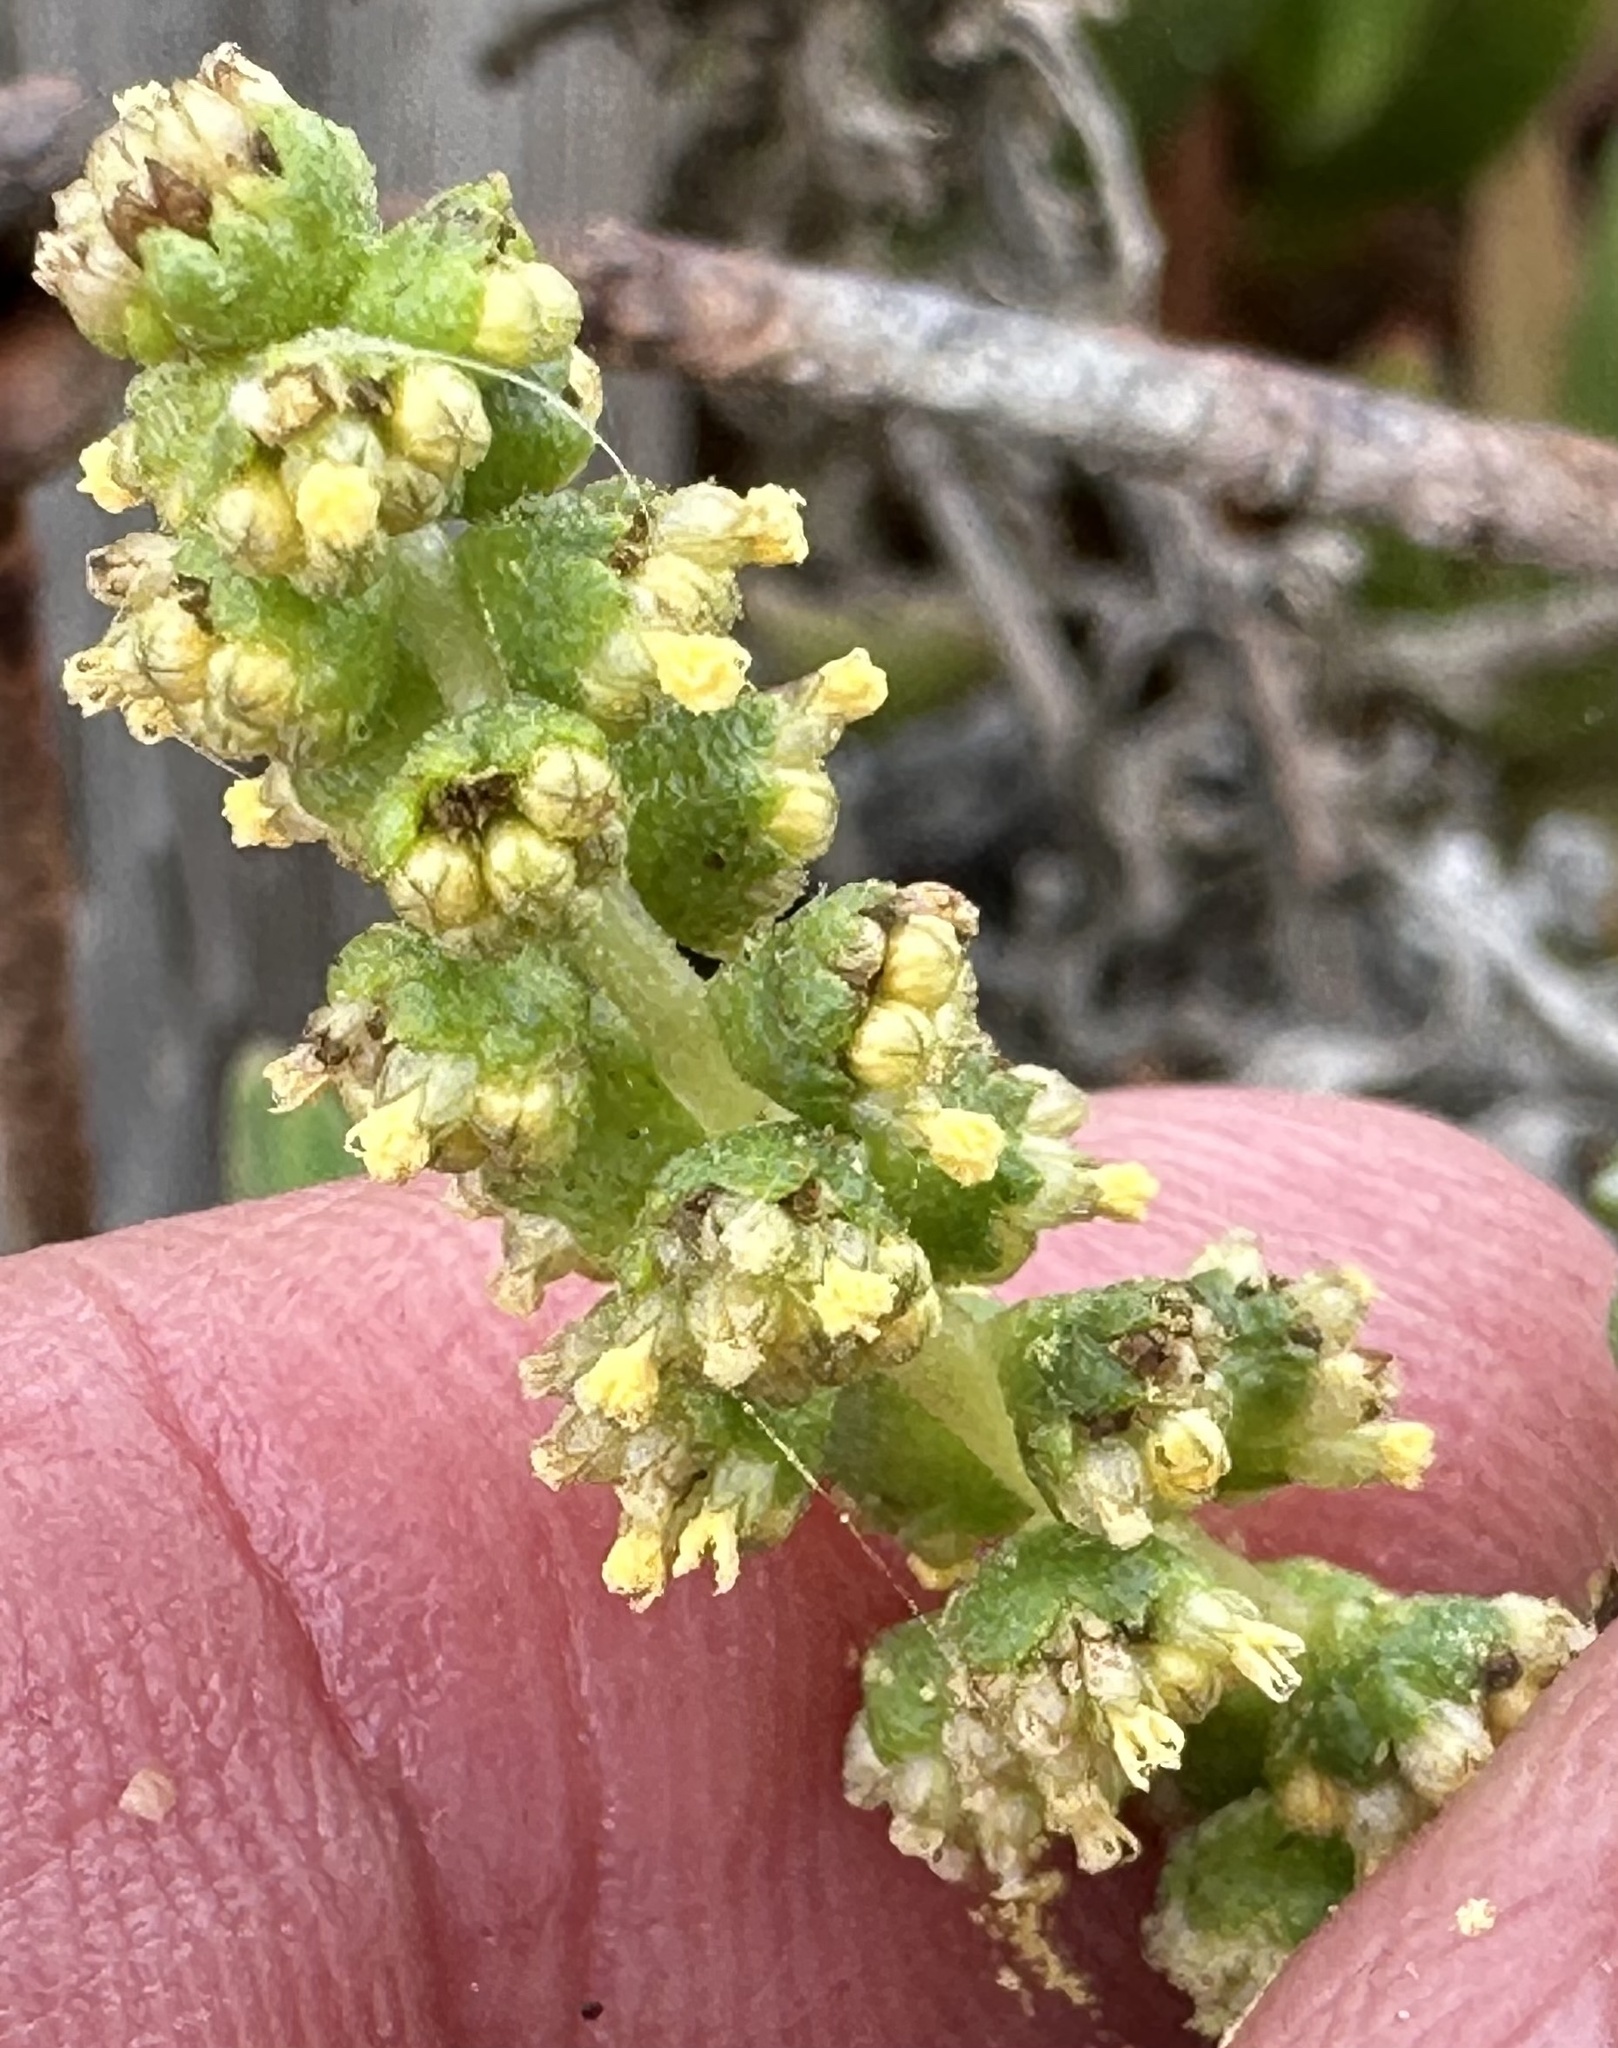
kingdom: Plantae
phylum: Tracheophyta
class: Magnoliopsida
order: Asterales
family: Asteraceae
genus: Ambrosia
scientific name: Ambrosia chamissonis
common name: Beachbur
